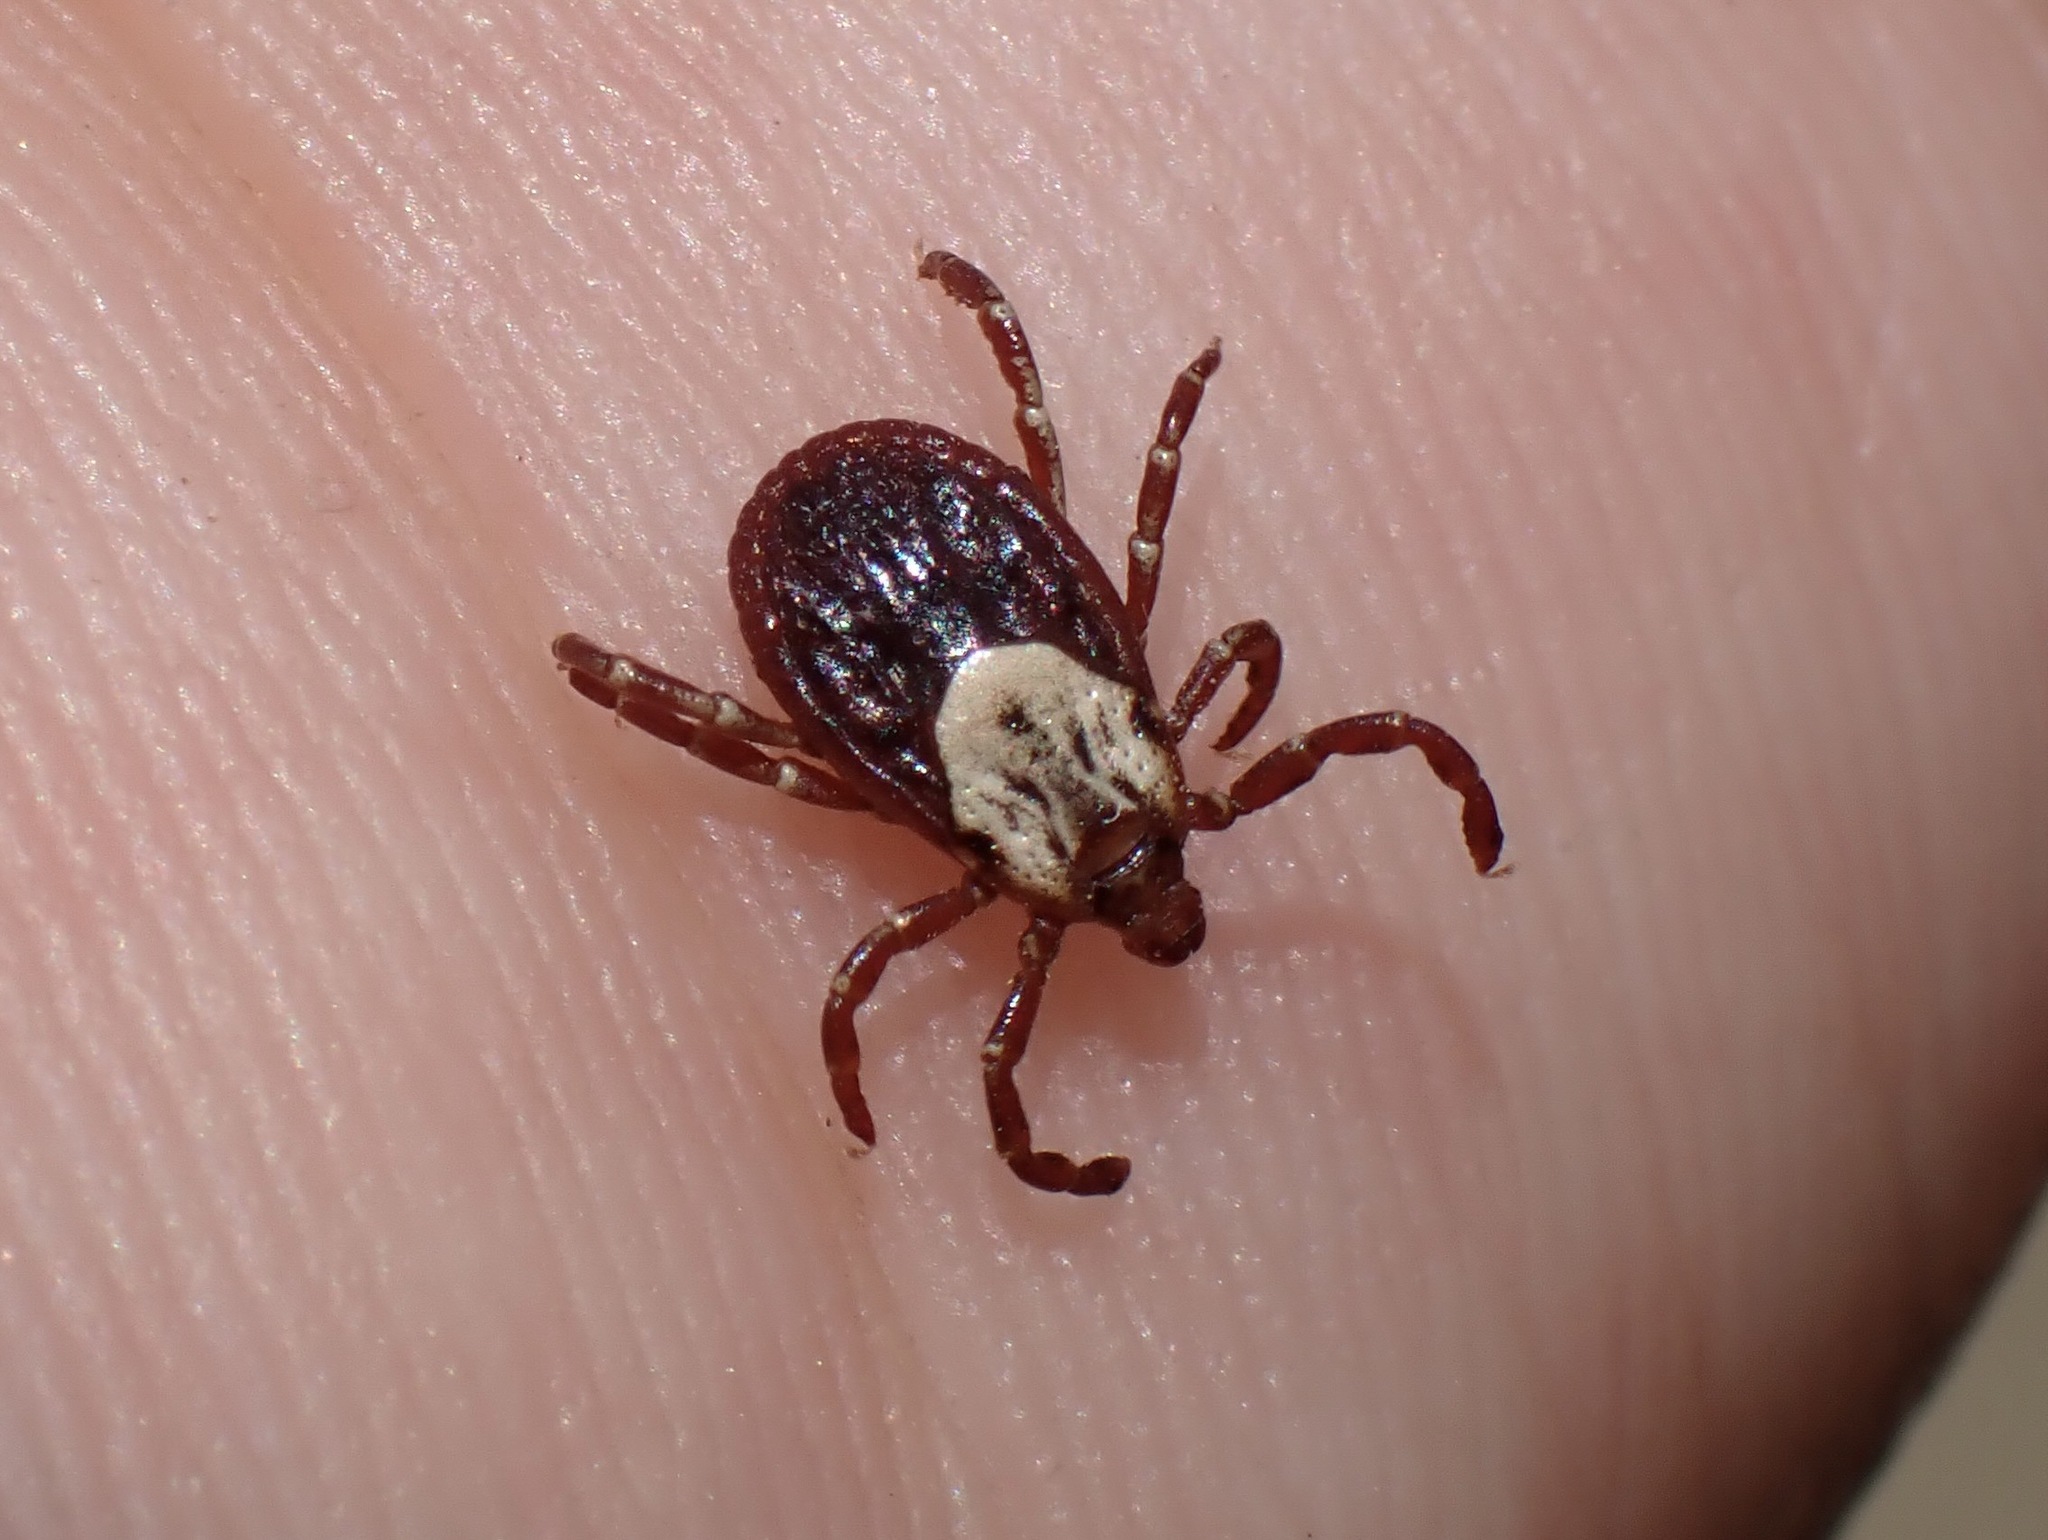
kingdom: Animalia
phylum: Arthropoda
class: Arachnida
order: Ixodida
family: Ixodidae
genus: Dermacentor
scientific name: Dermacentor variabilis
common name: American dog tick
